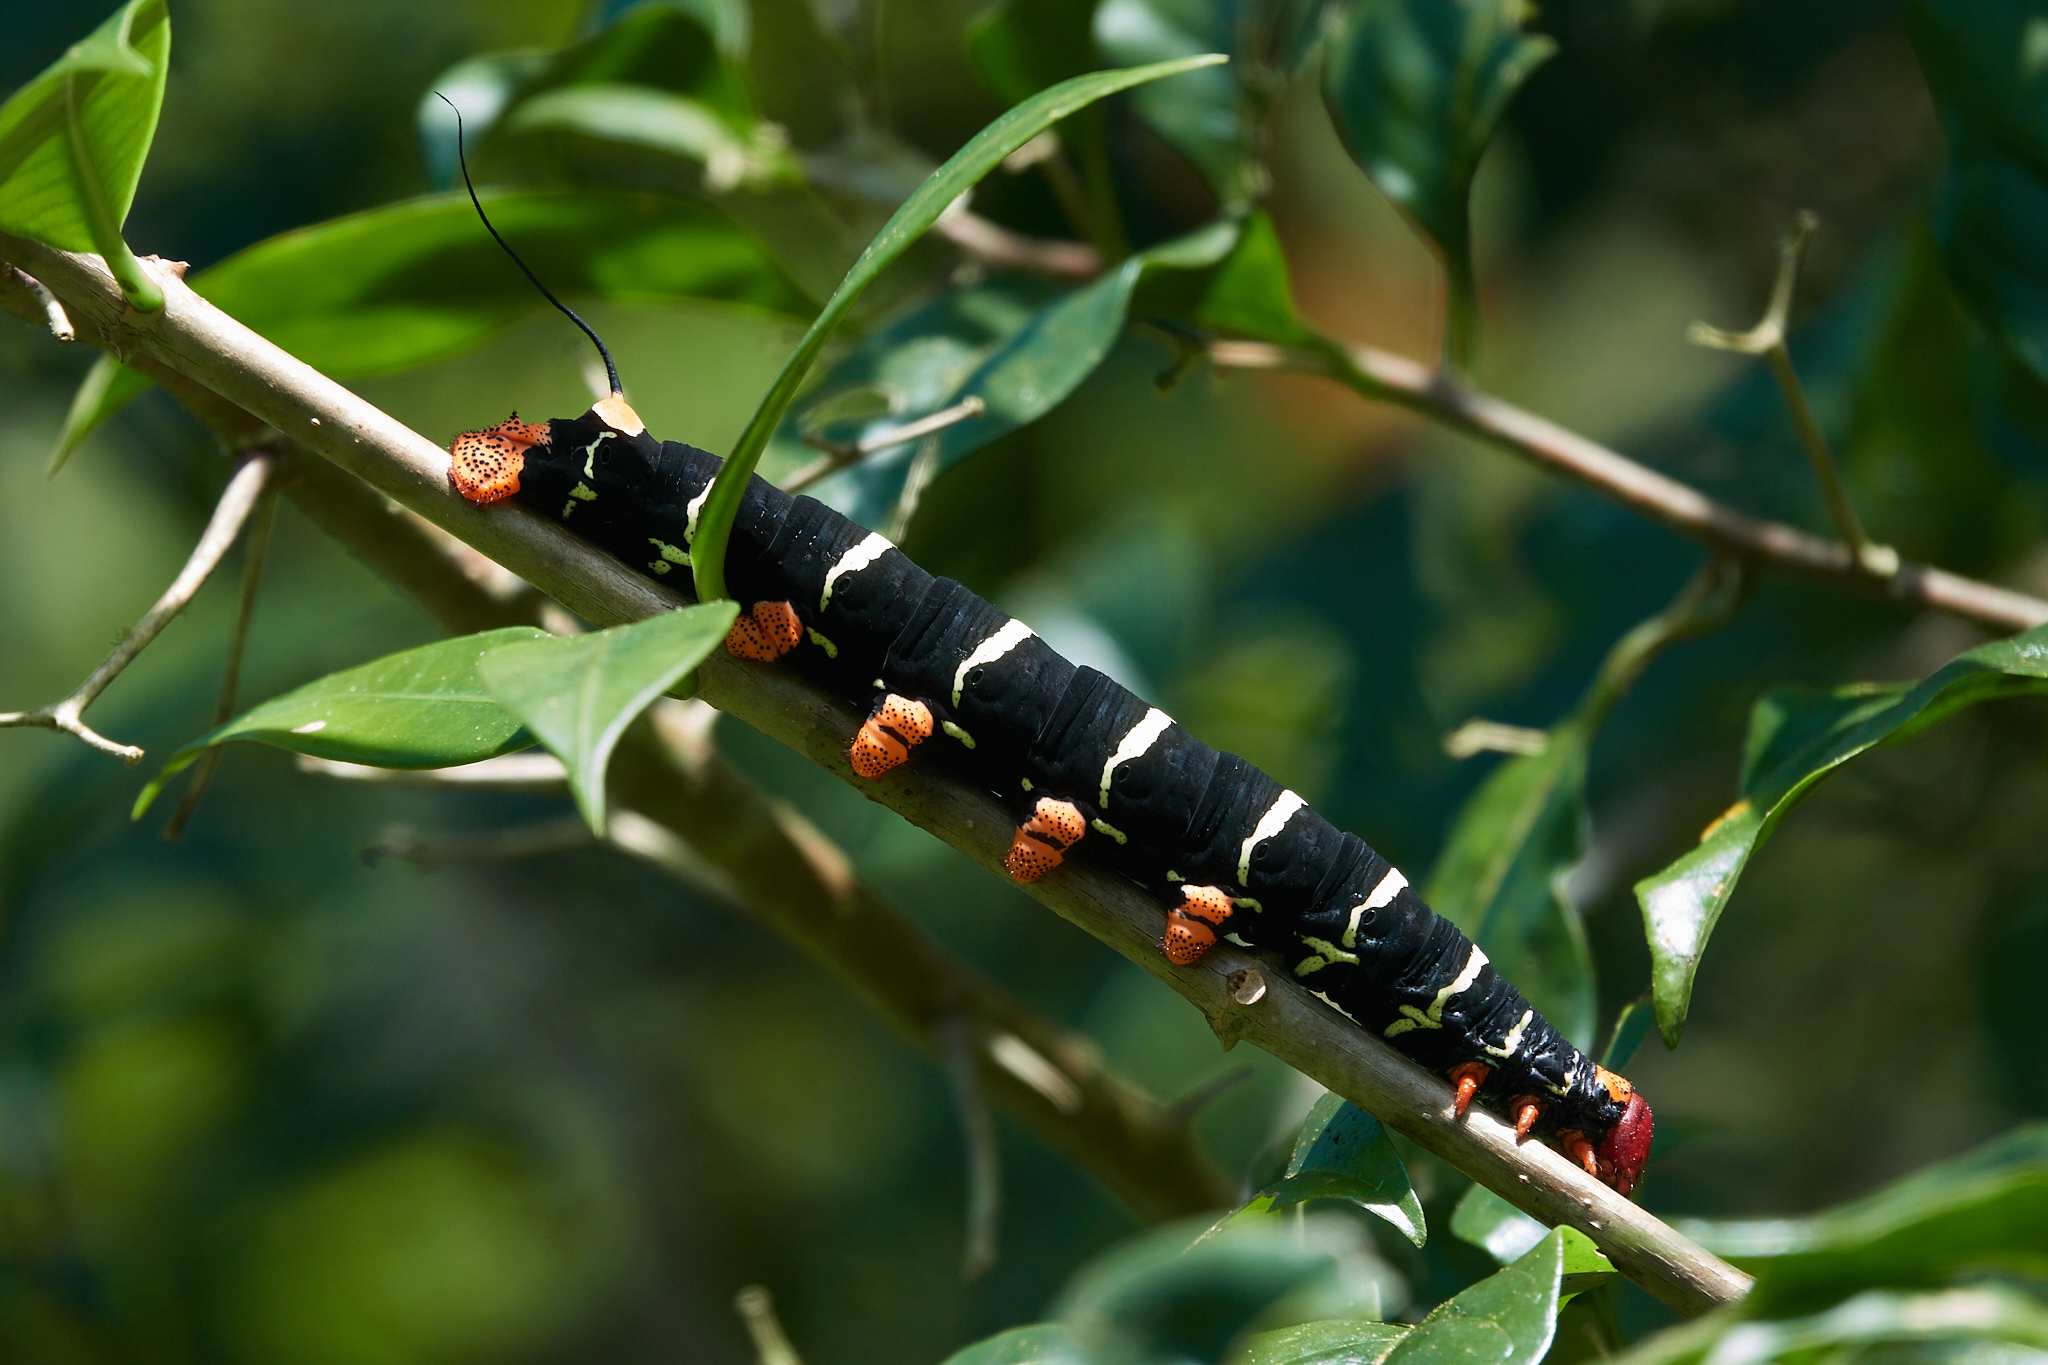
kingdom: Animalia
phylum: Arthropoda
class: Insecta
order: Lepidoptera
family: Sphingidae
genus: Pseudosphinx
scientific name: Pseudosphinx tetrio
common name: Tetrio sphinx
